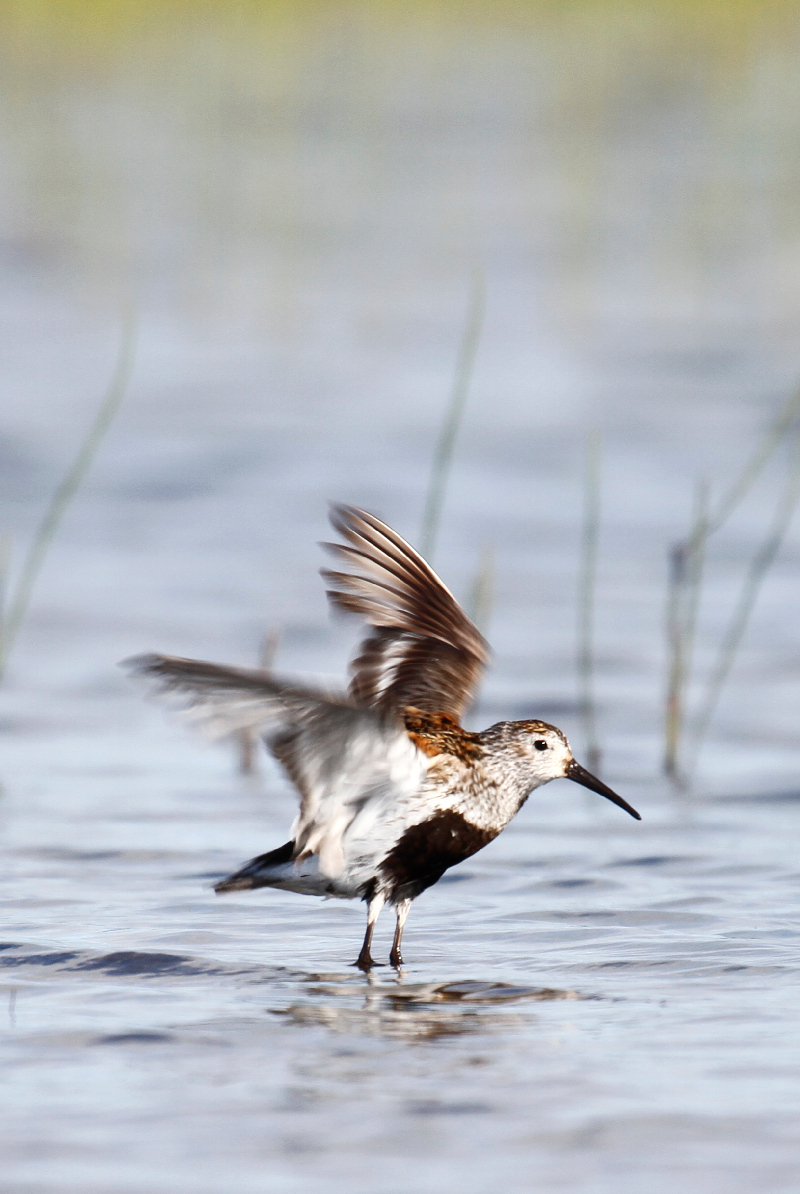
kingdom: Animalia
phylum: Chordata
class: Aves
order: Charadriiformes
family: Scolopacidae
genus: Calidris
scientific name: Calidris alpina
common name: Dunlin
